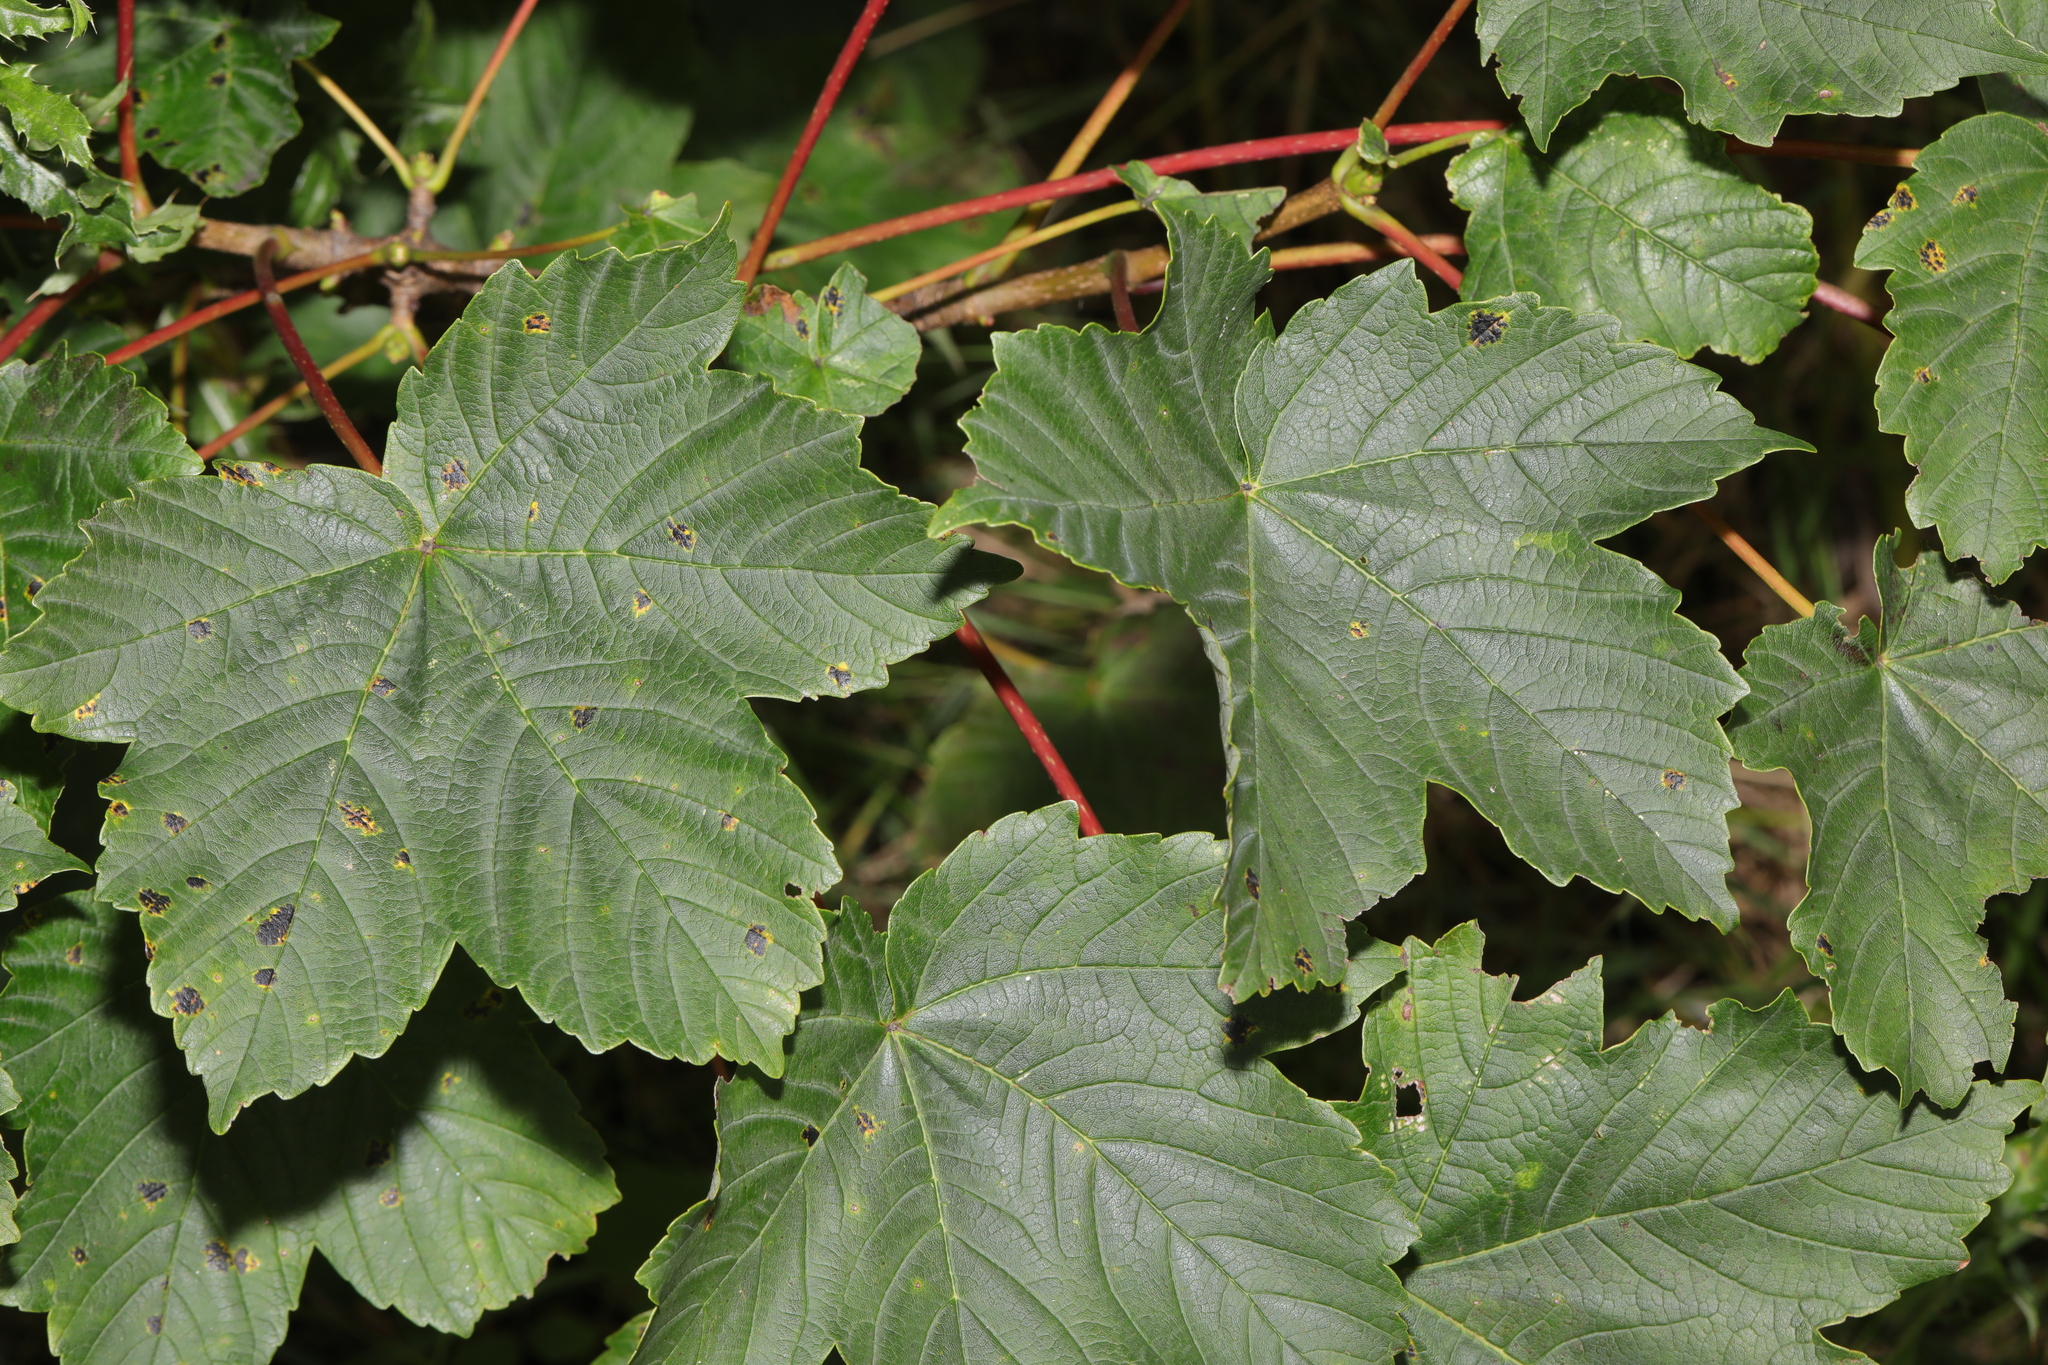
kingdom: Plantae
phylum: Tracheophyta
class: Magnoliopsida
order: Sapindales
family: Sapindaceae
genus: Acer
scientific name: Acer pseudoplatanus
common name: Sycamore
